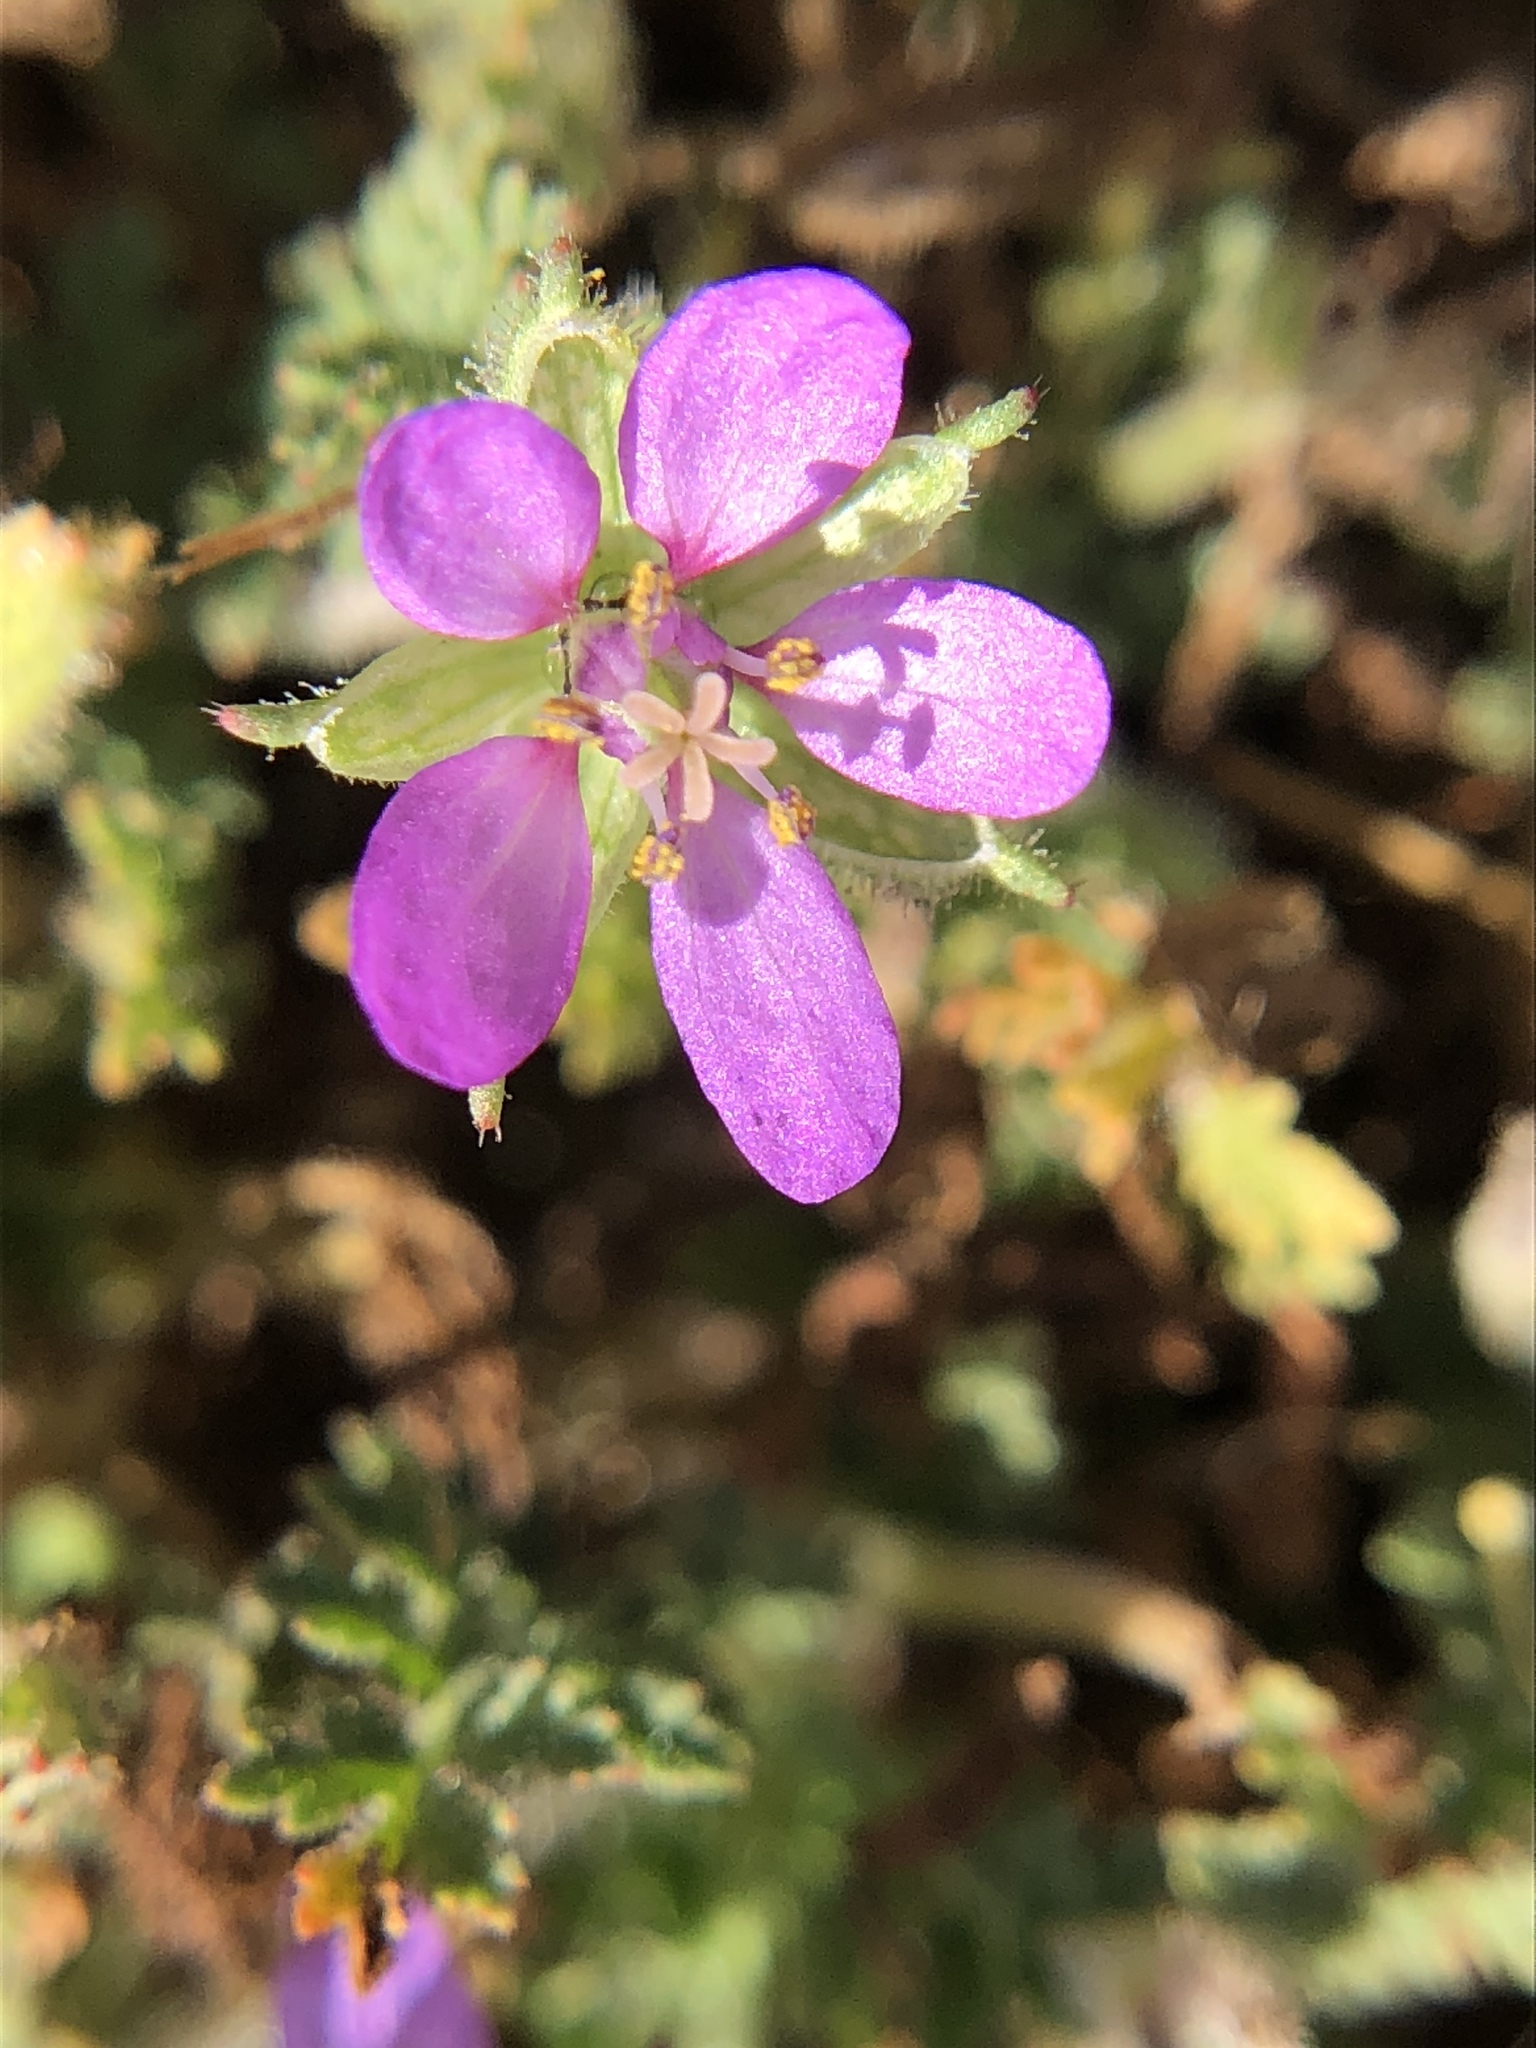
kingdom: Plantae
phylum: Tracheophyta
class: Magnoliopsida
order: Geraniales
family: Geraniaceae
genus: Erodium
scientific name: Erodium cicutarium
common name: Common stork's-bill
